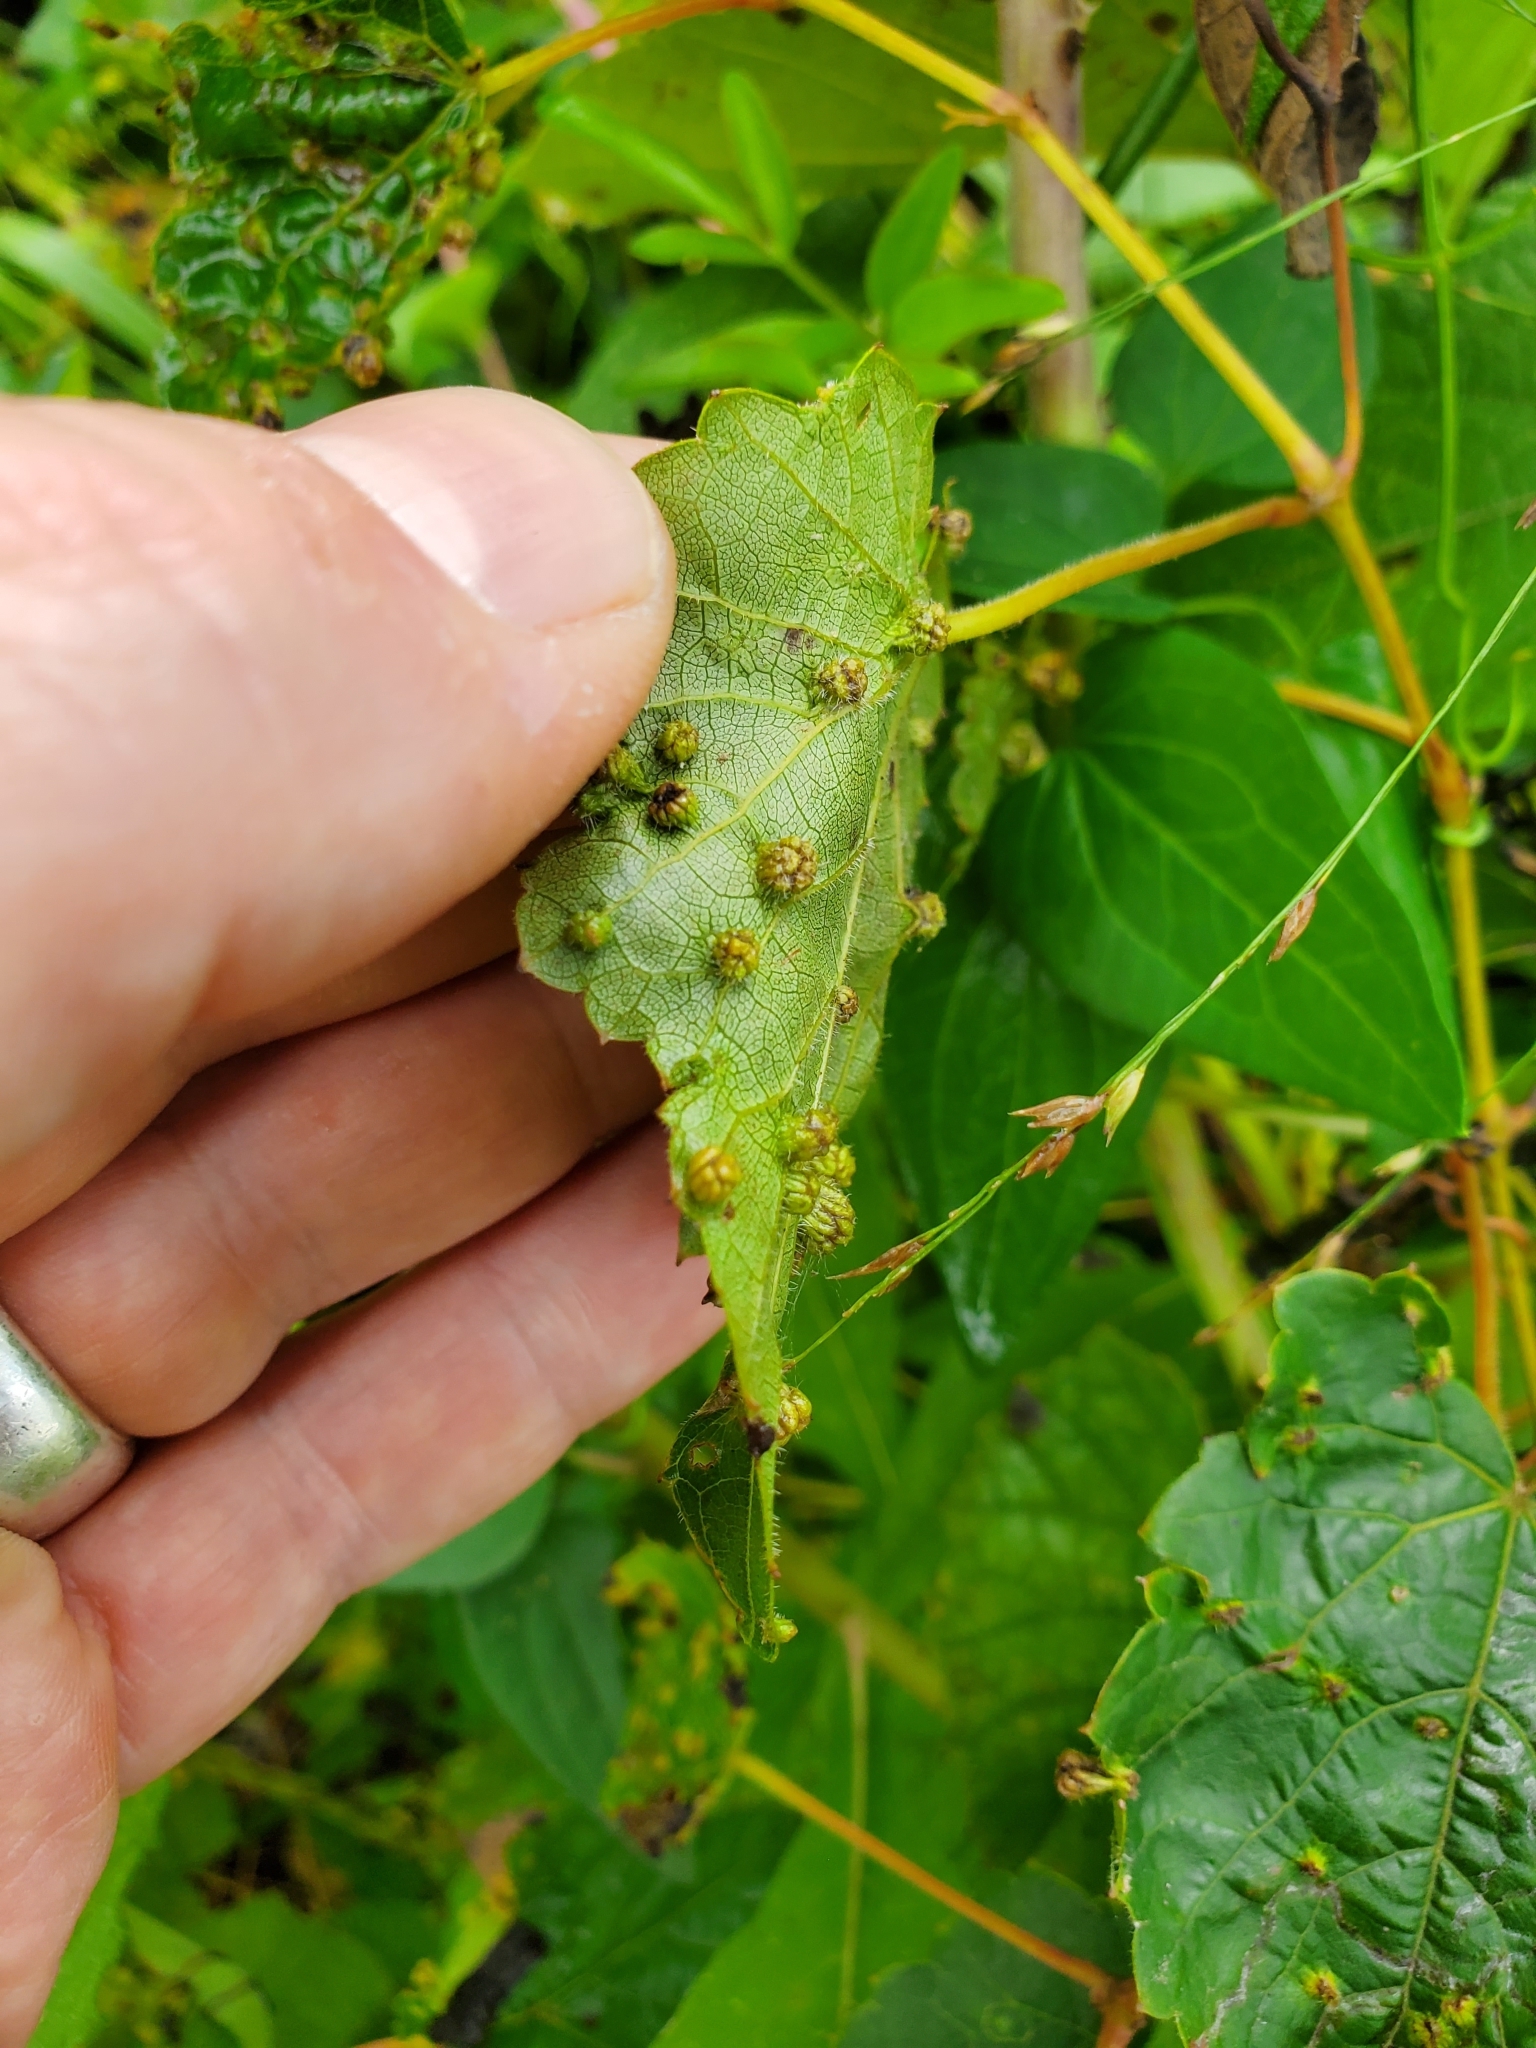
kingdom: Animalia
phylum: Arthropoda
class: Insecta
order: Hemiptera
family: Phylloxeridae
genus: Daktulosphaira
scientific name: Daktulosphaira vitifoliae
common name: Grape phylloxera
